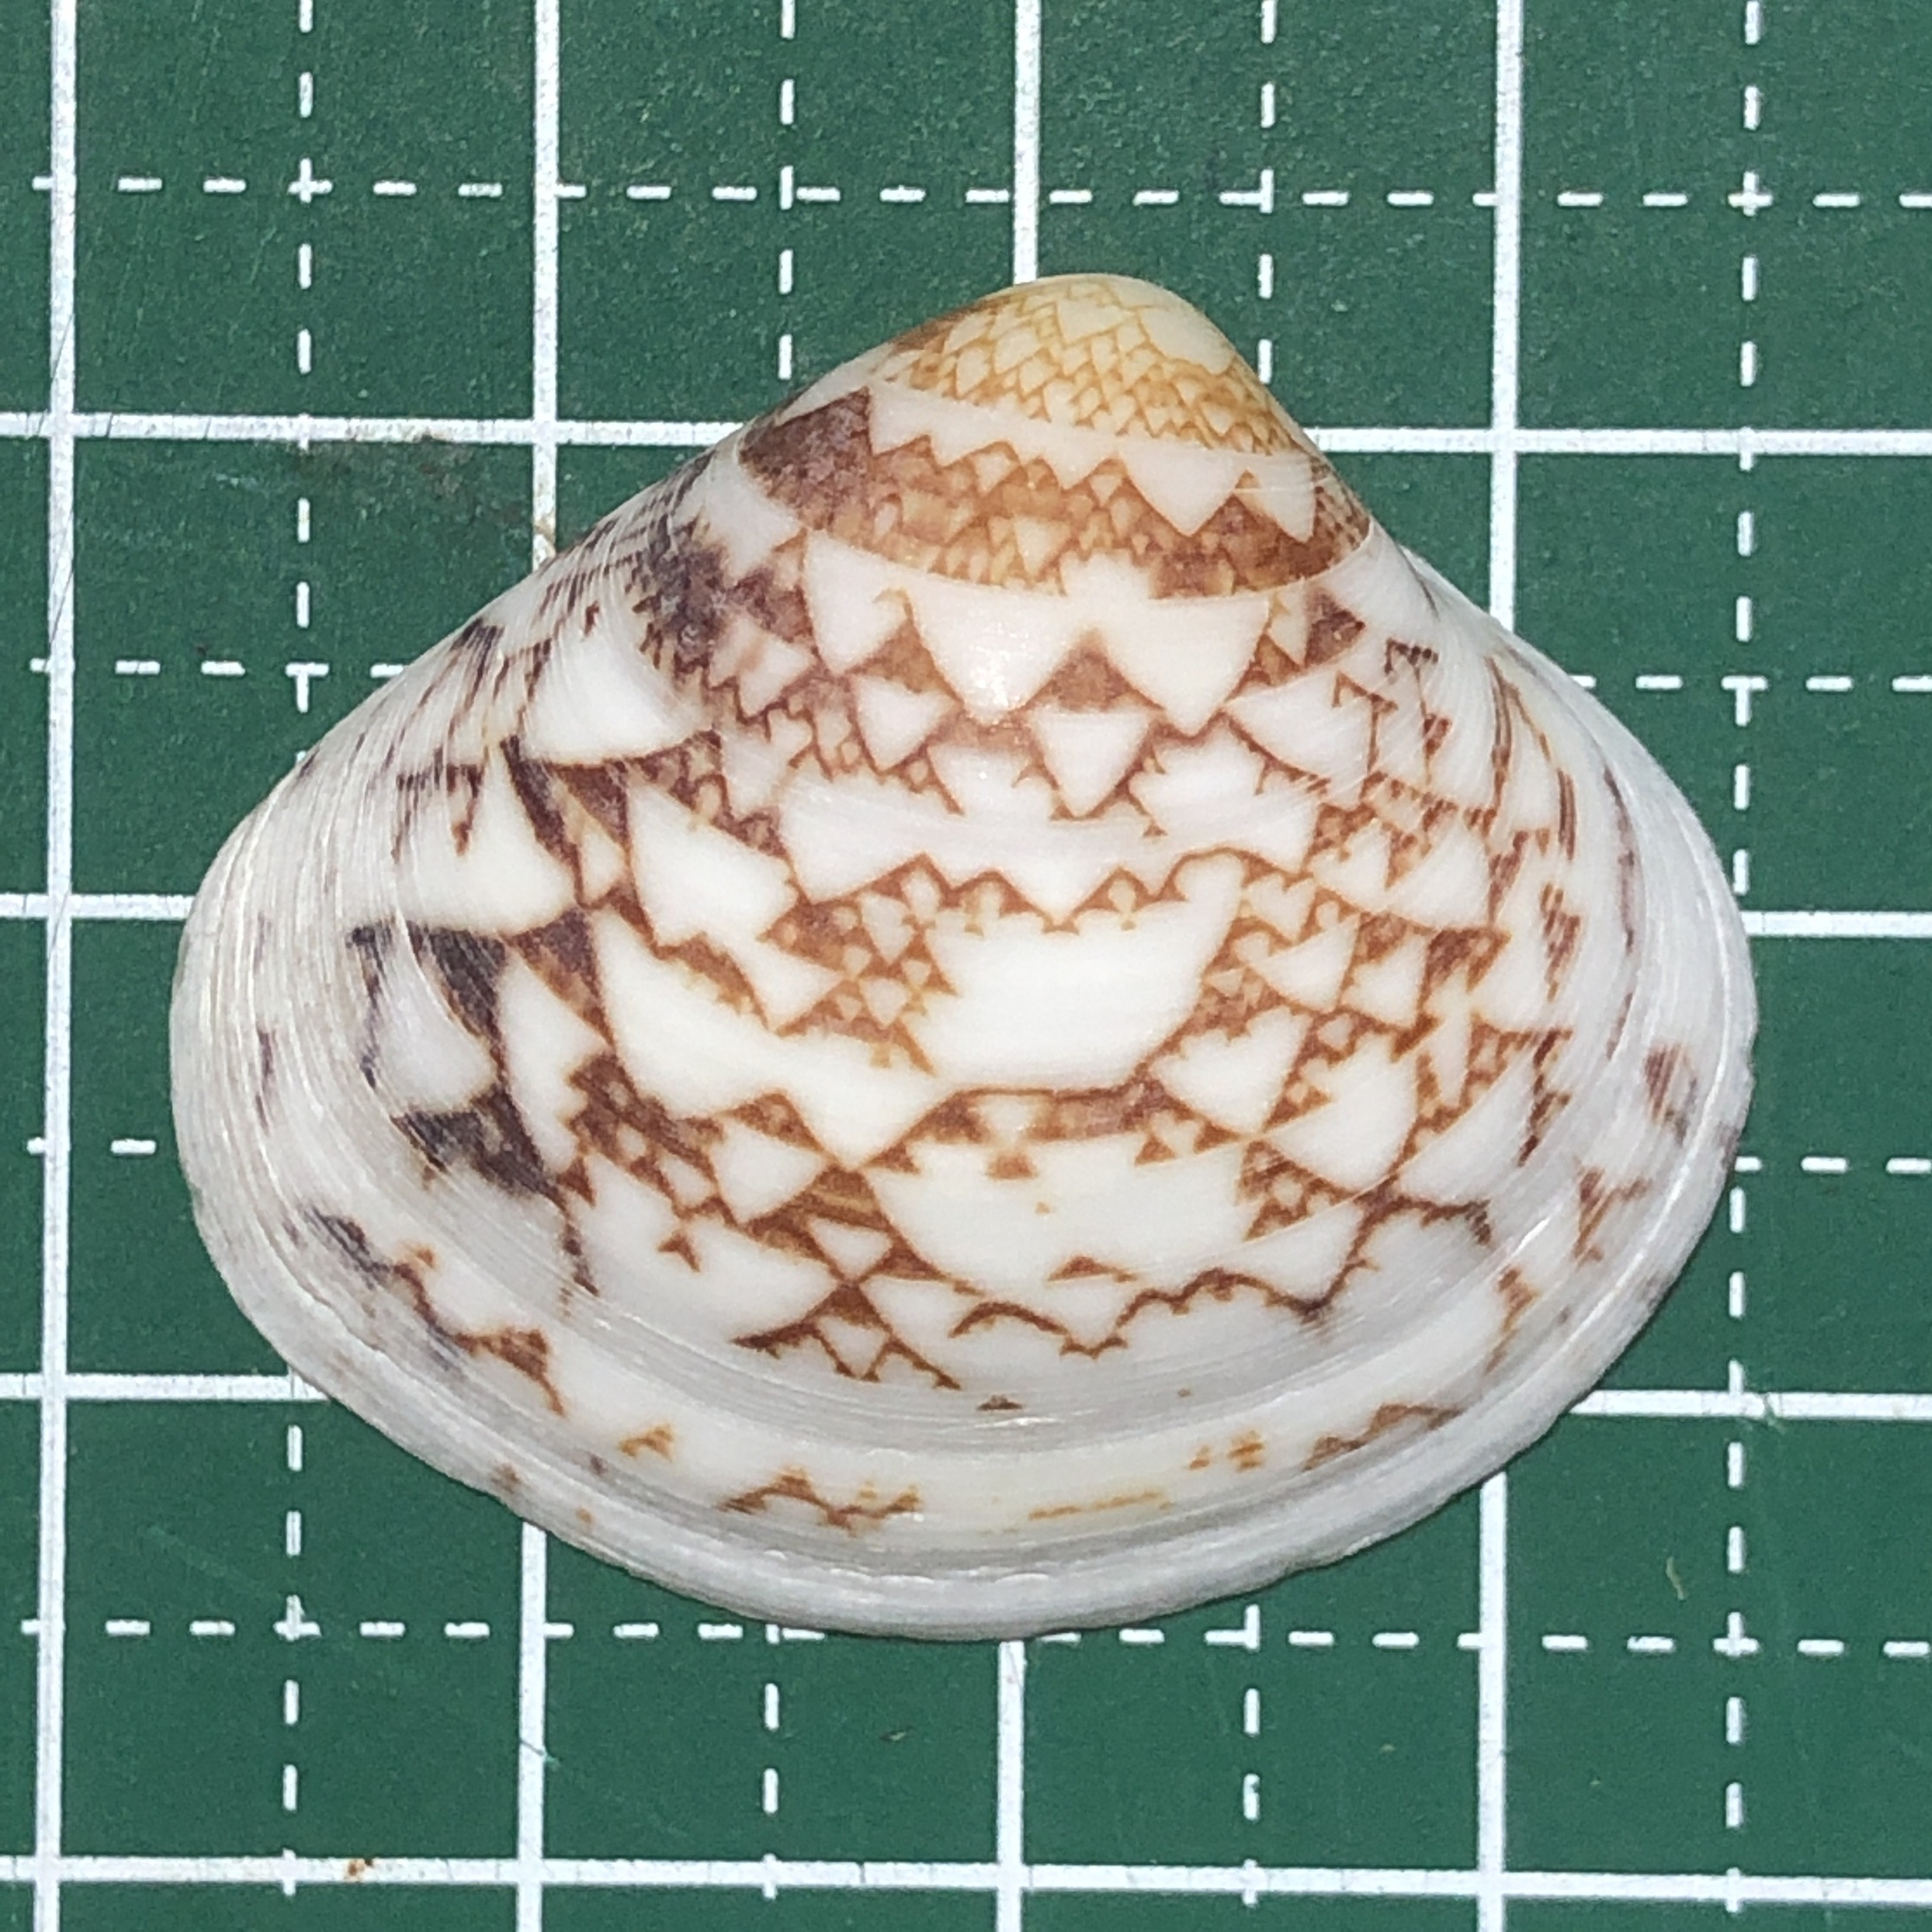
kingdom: Animalia
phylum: Mollusca
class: Bivalvia
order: Venerida
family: Veneridae
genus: Lioconcha
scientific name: Lioconcha fastigiata
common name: Clam
